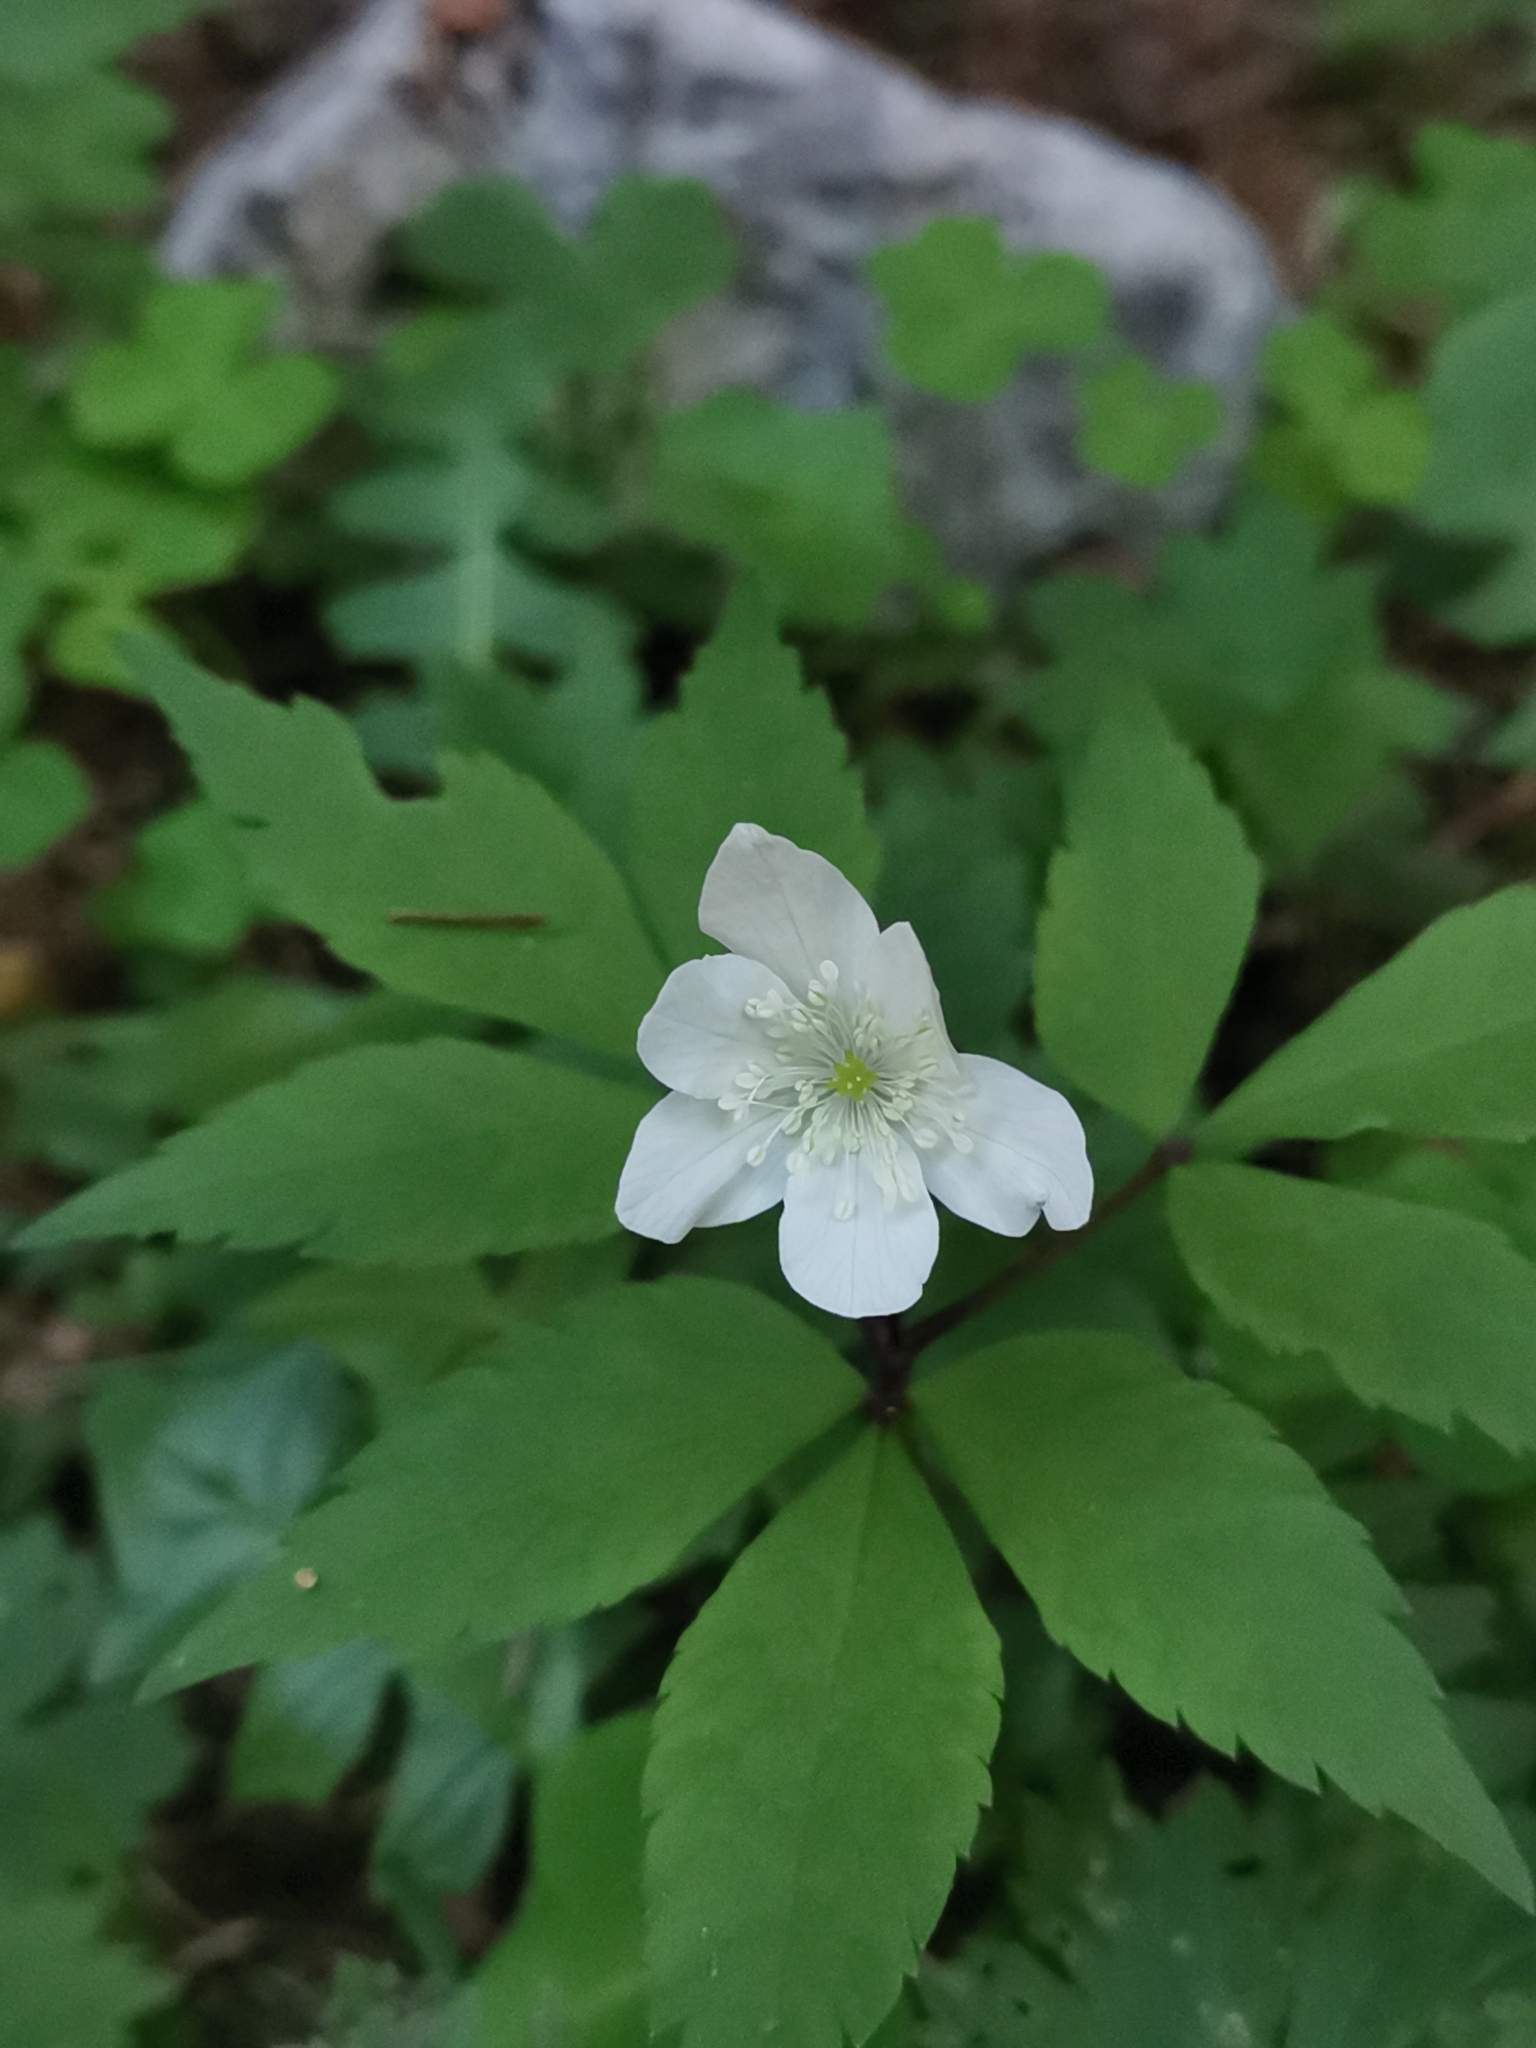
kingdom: Plantae
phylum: Tracheophyta
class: Magnoliopsida
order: Ranunculales
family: Ranunculaceae
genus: Anemone
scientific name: Anemone trifolia
